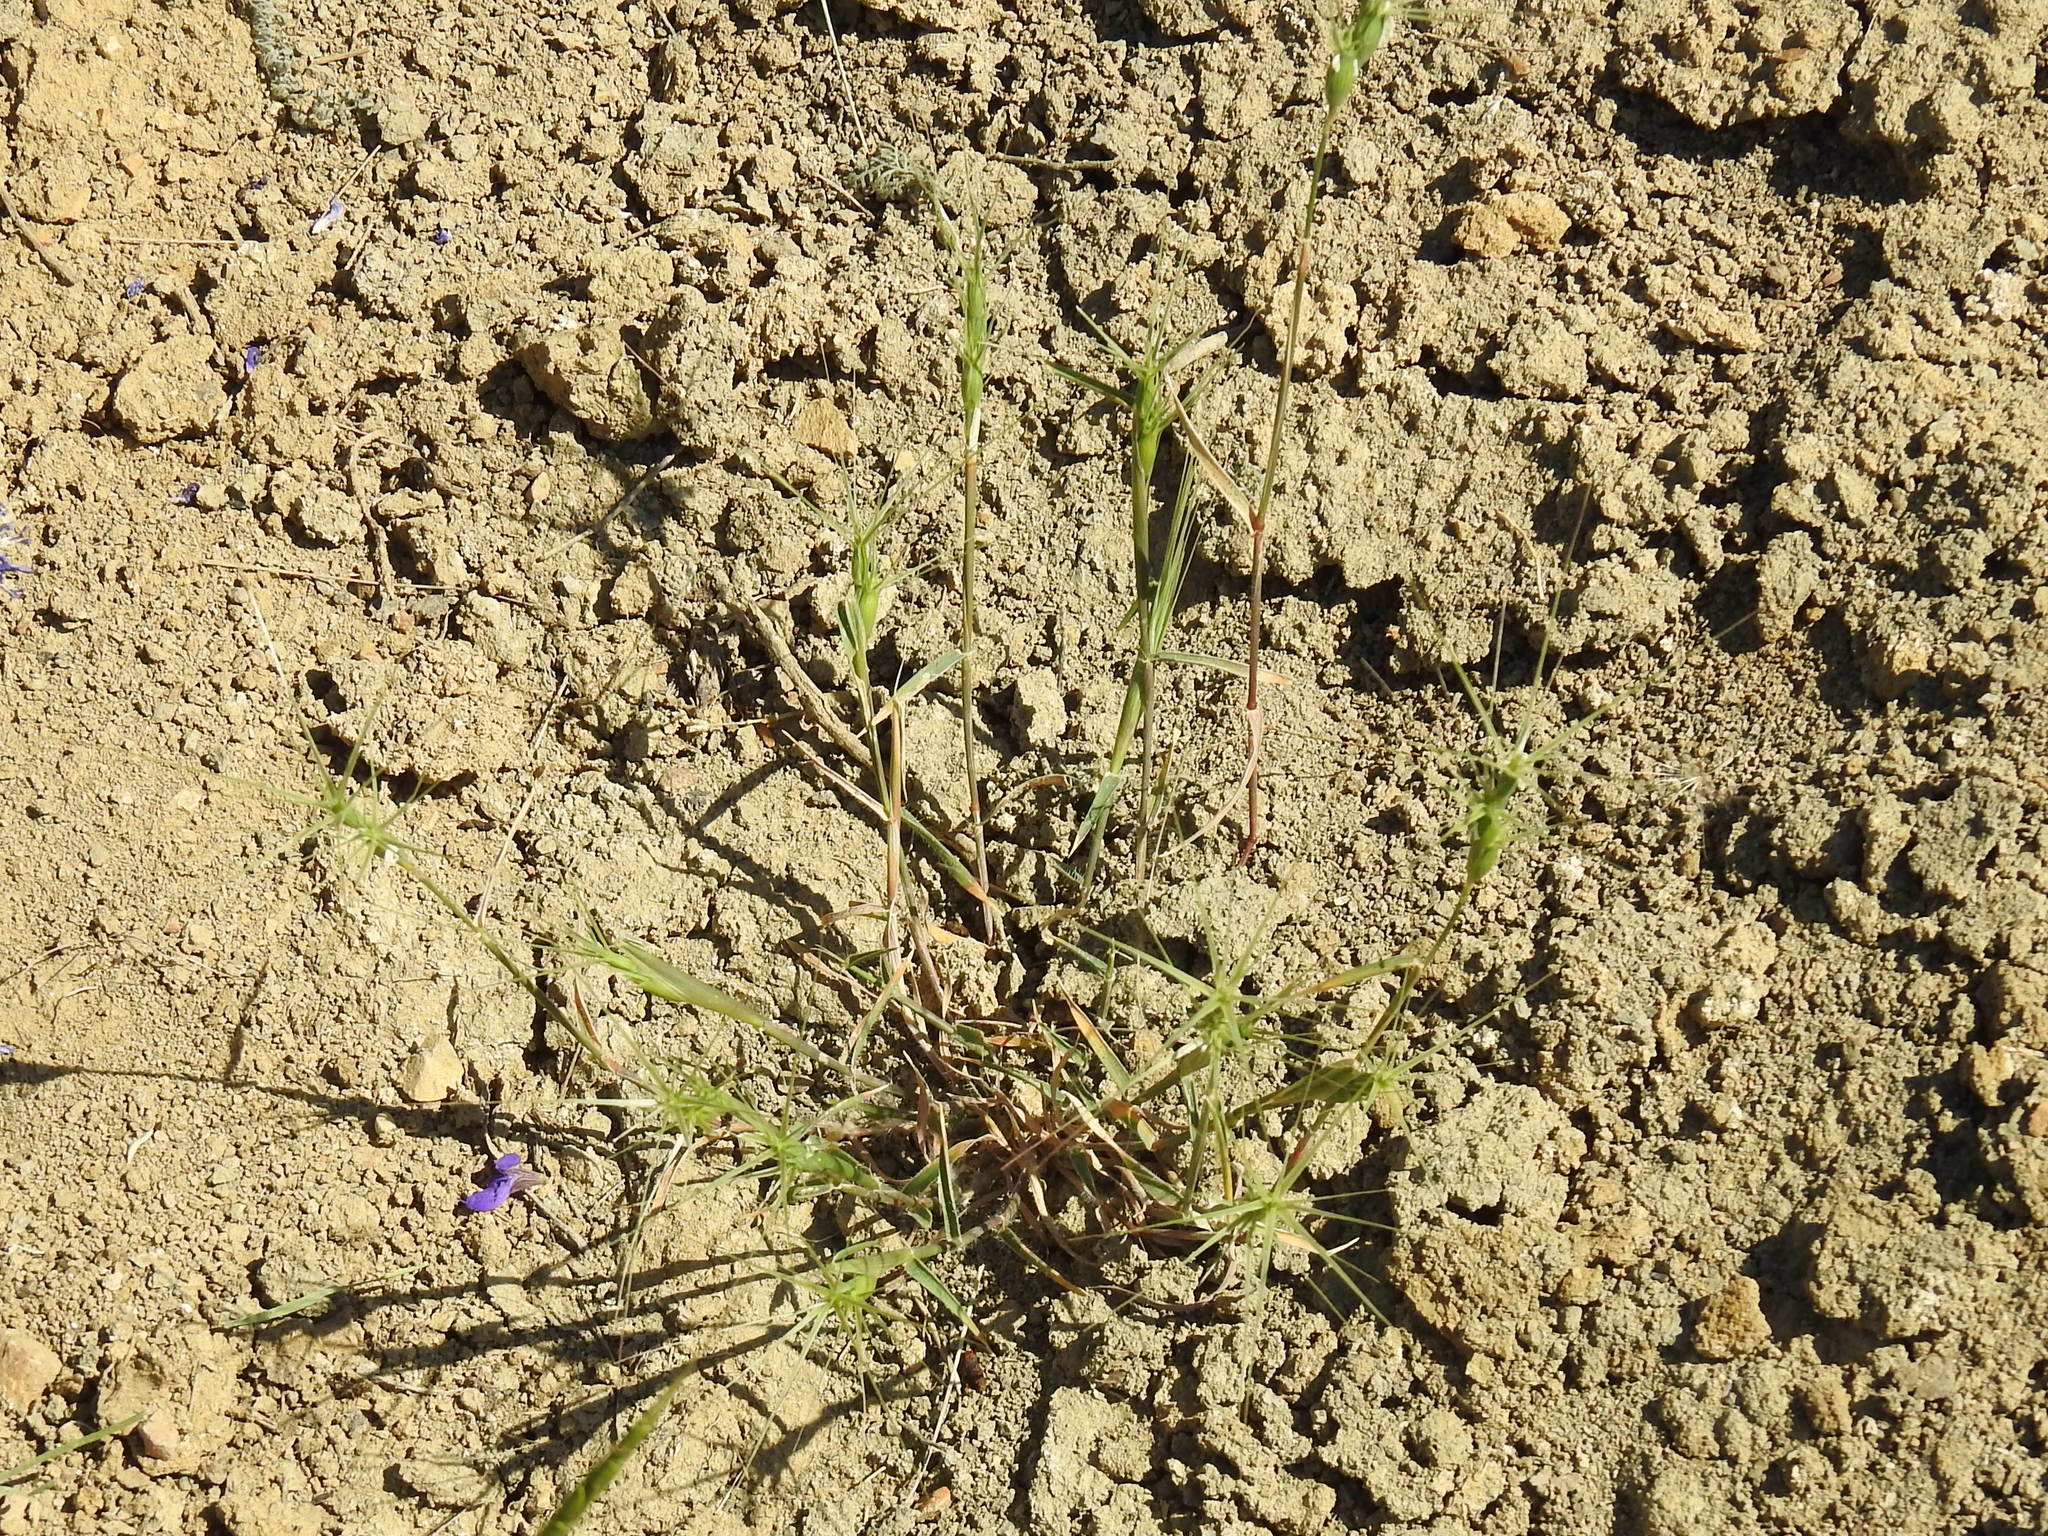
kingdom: Plantae
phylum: Tracheophyta
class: Liliopsida
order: Poales
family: Poaceae
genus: Aegilops
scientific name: Aegilops biuncialis
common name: Mediterranean aegilops
